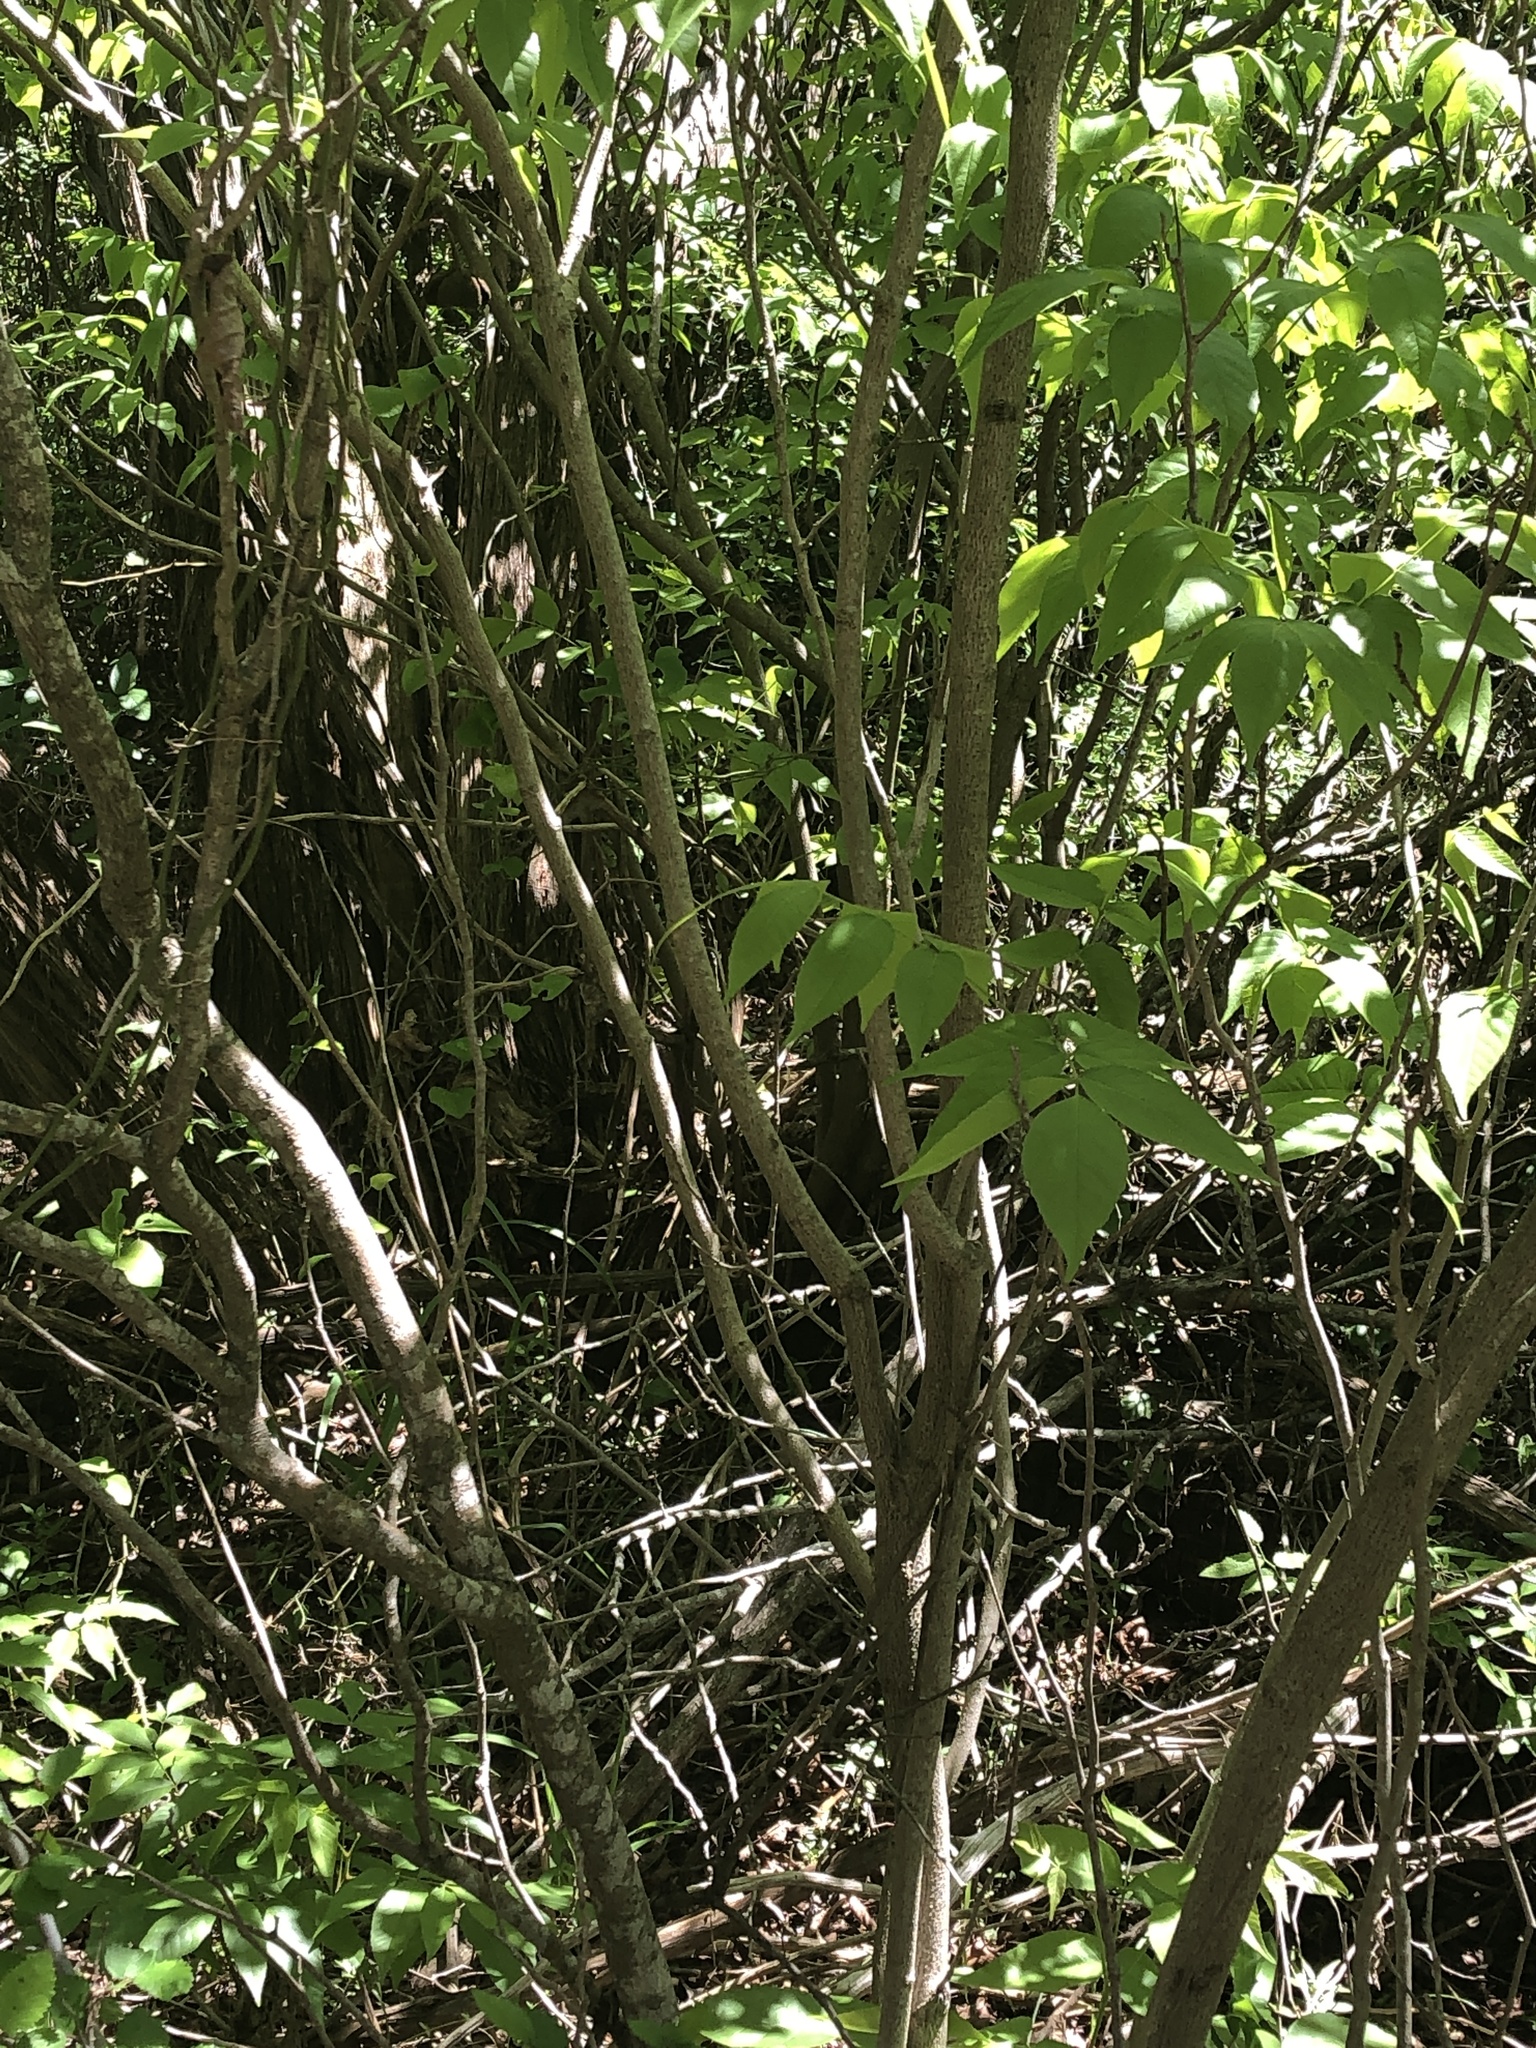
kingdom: Plantae
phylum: Tracheophyta
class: Magnoliopsida
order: Sapindales
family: Sapindaceae
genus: Ungnadia
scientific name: Ungnadia speciosa
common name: Texas-buckeye
